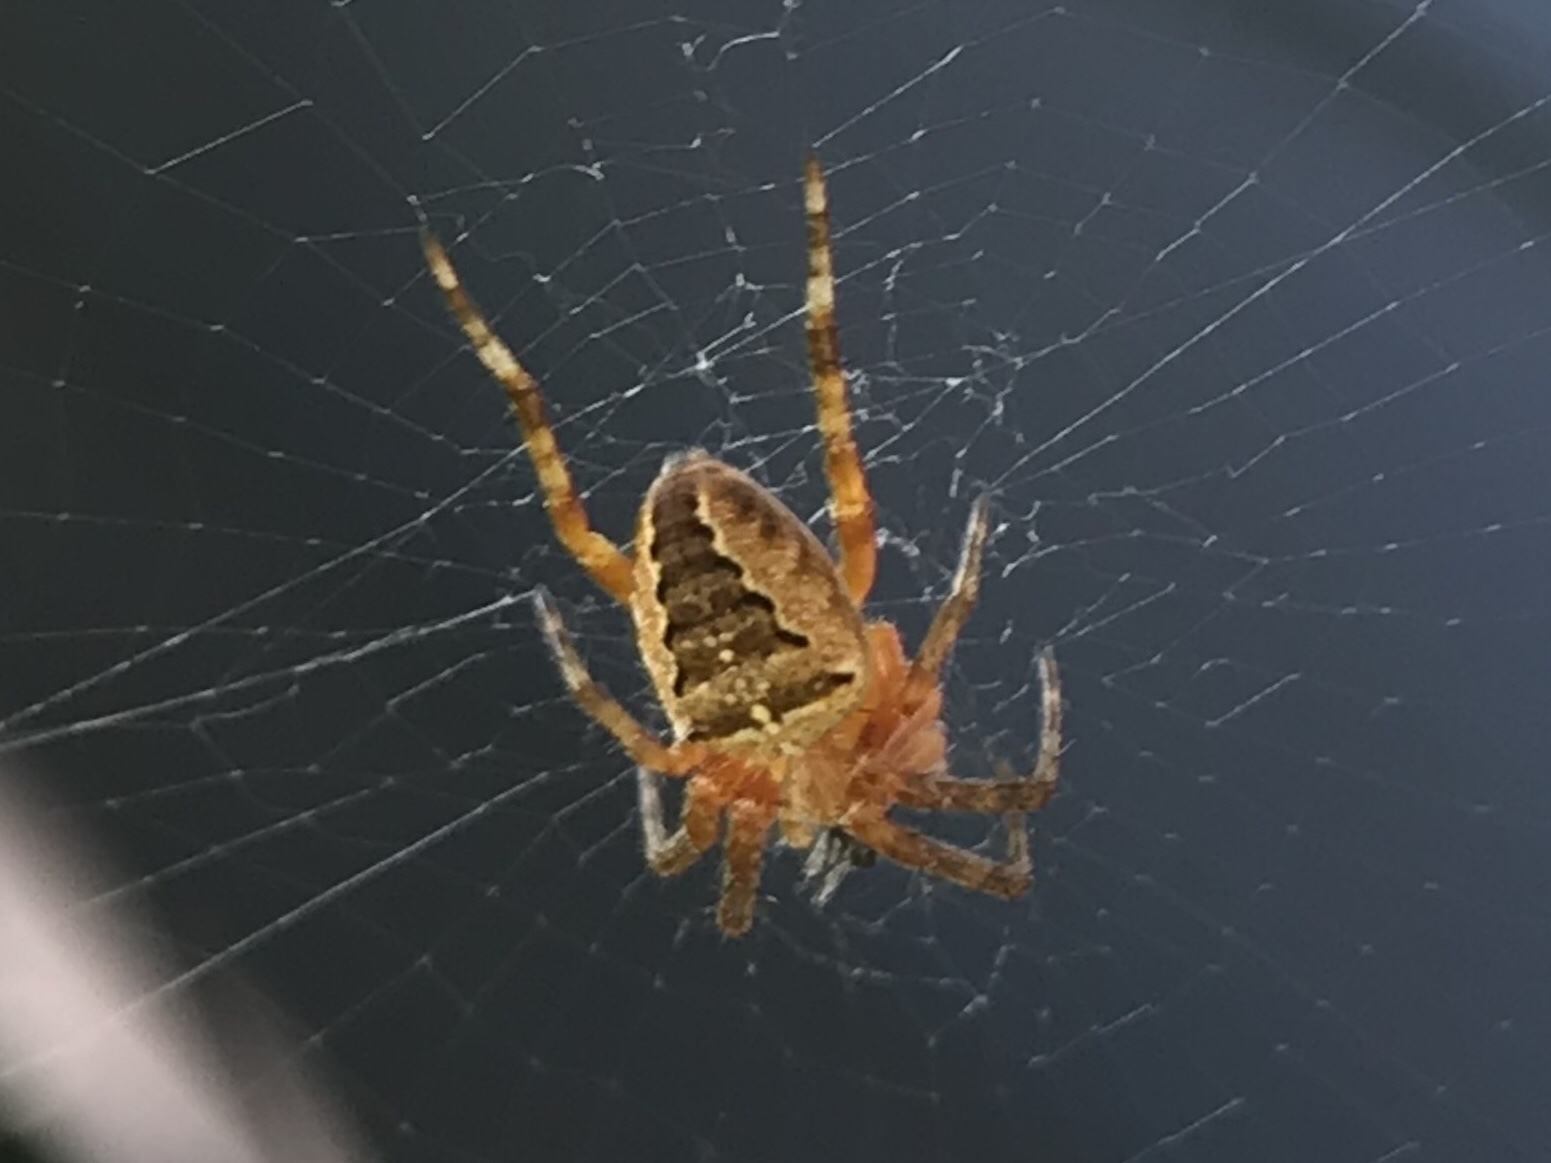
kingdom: Animalia
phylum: Arthropoda
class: Arachnida
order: Araneae
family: Araneidae
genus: Araneus
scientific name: Araneus diadematus
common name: Cross orbweaver
